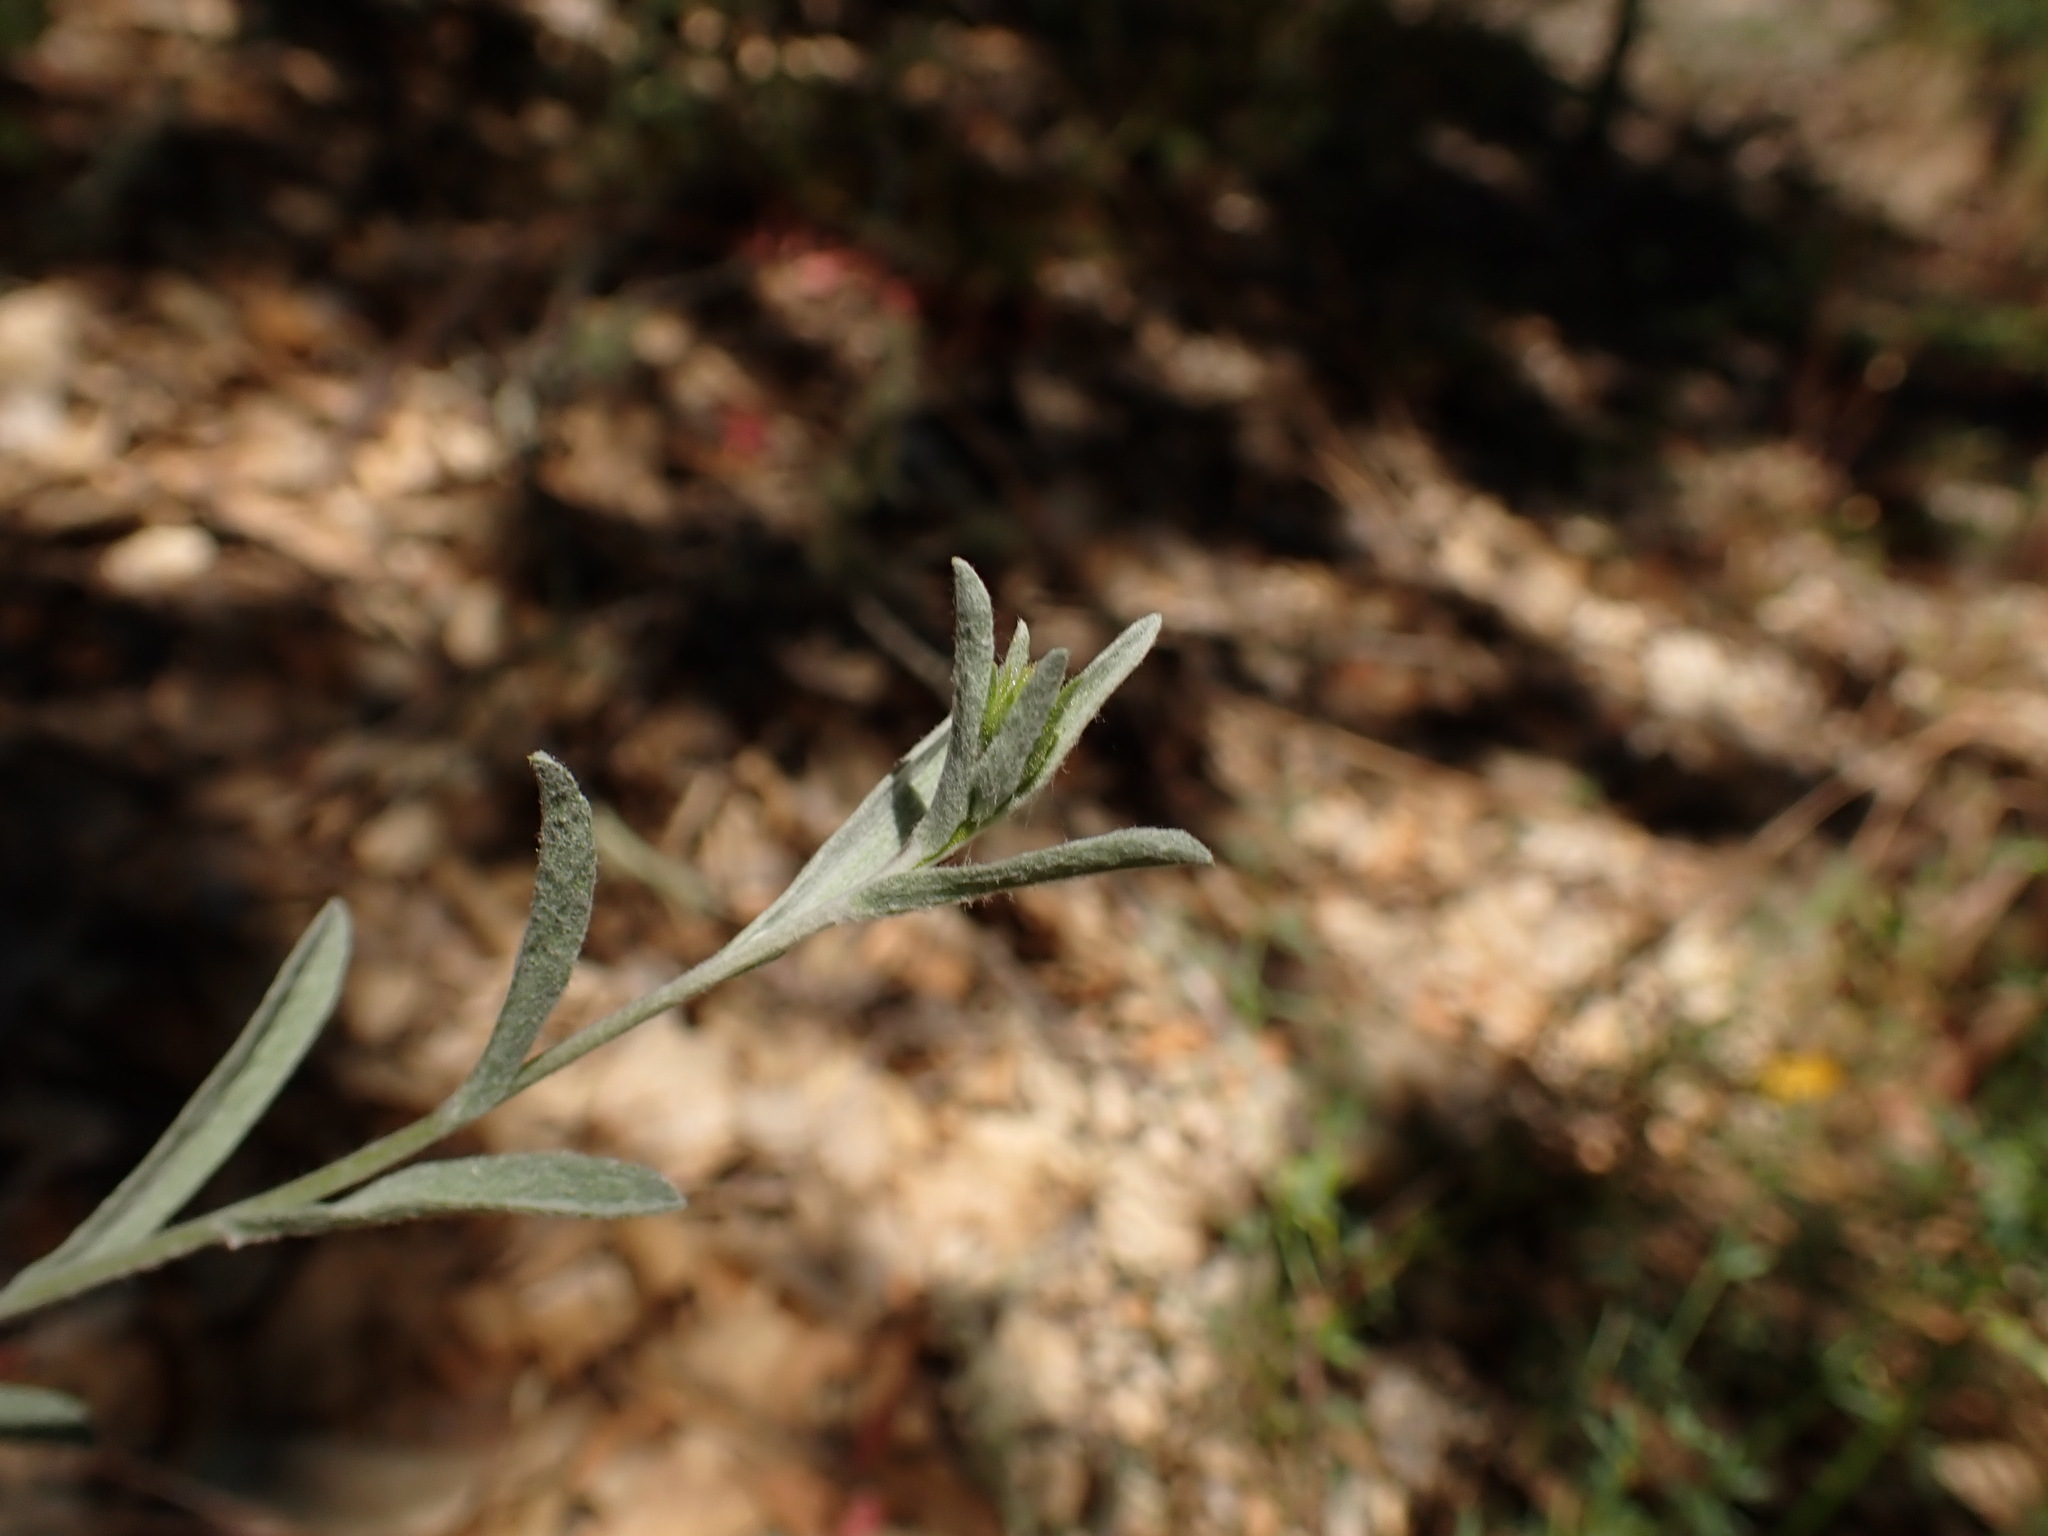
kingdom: Plantae
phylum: Tracheophyta
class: Magnoliopsida
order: Asterales
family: Asteraceae
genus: Corethrogyne
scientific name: Corethrogyne filaginifolia
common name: Sand-aster
